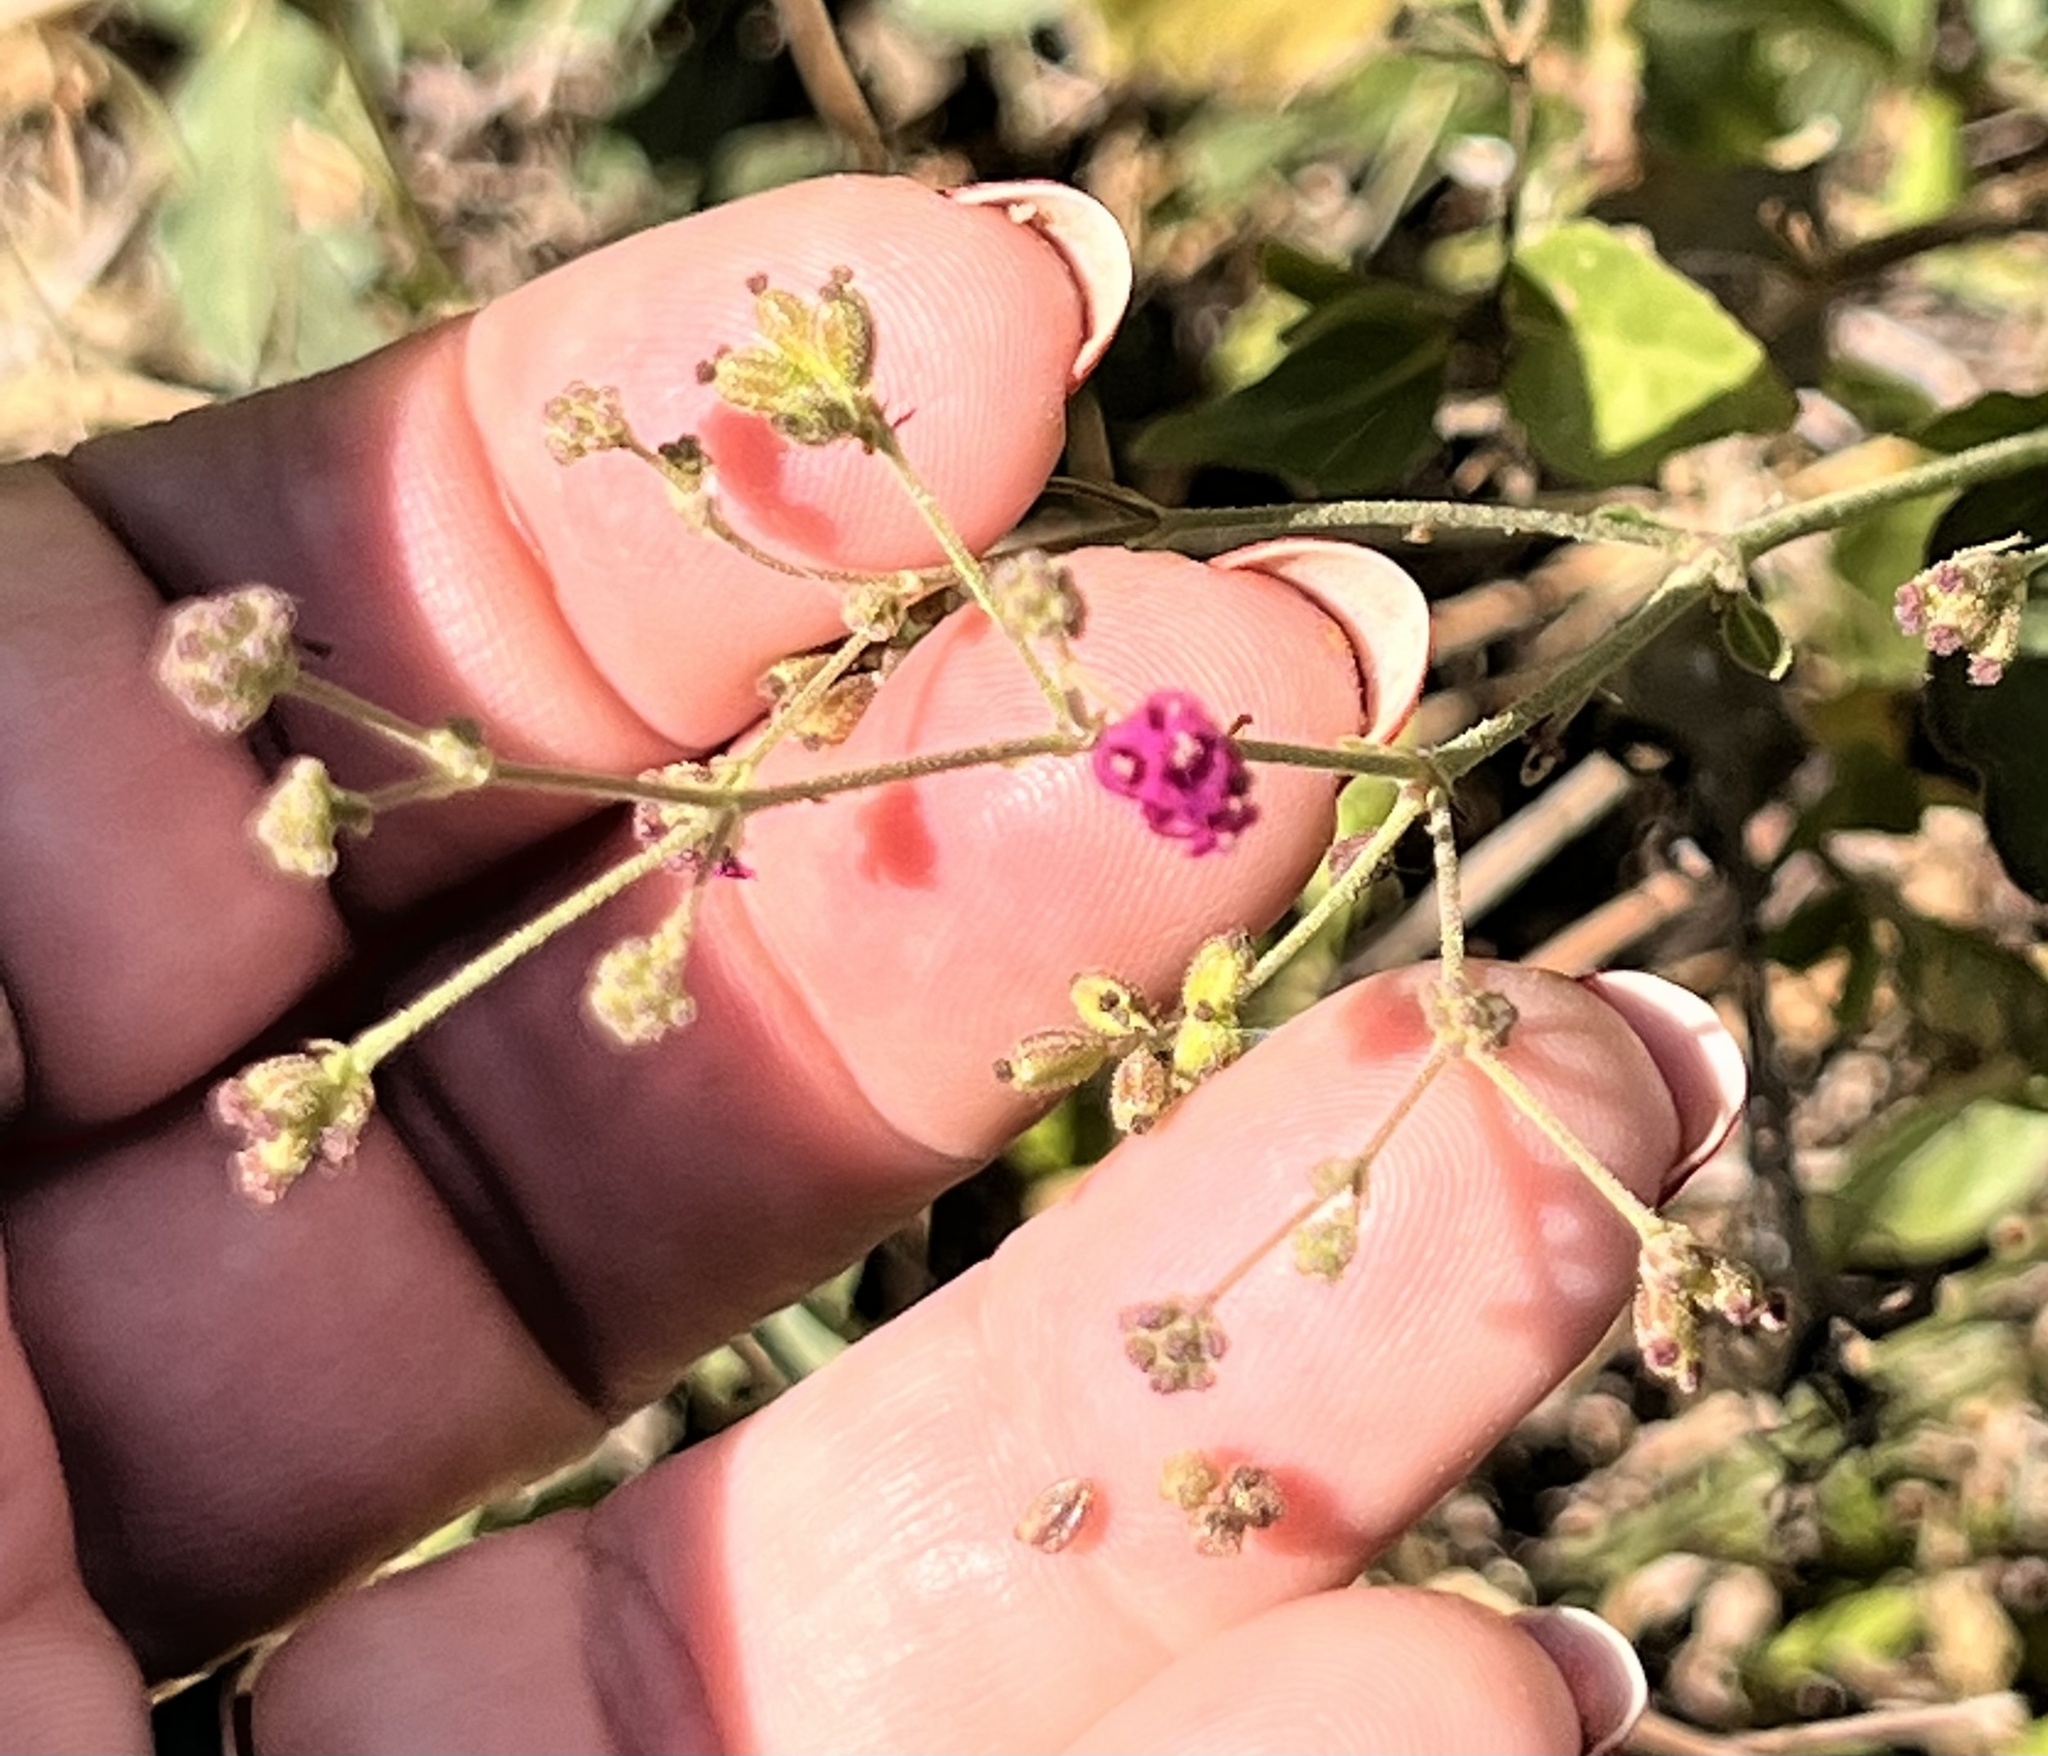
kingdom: Plantae
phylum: Tracheophyta
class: Magnoliopsida
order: Caryophyllales
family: Nyctaginaceae
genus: Boerhavia
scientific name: Boerhavia coccinea
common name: Scarlet spiderling
